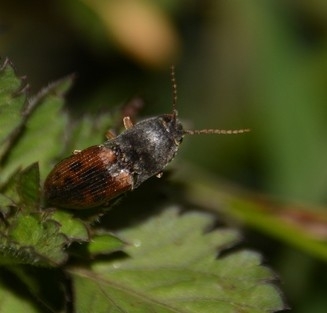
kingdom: Animalia
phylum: Arthropoda
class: Insecta
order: Coleoptera
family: Elateridae
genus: Monocrepidius
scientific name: Monocrepidius
